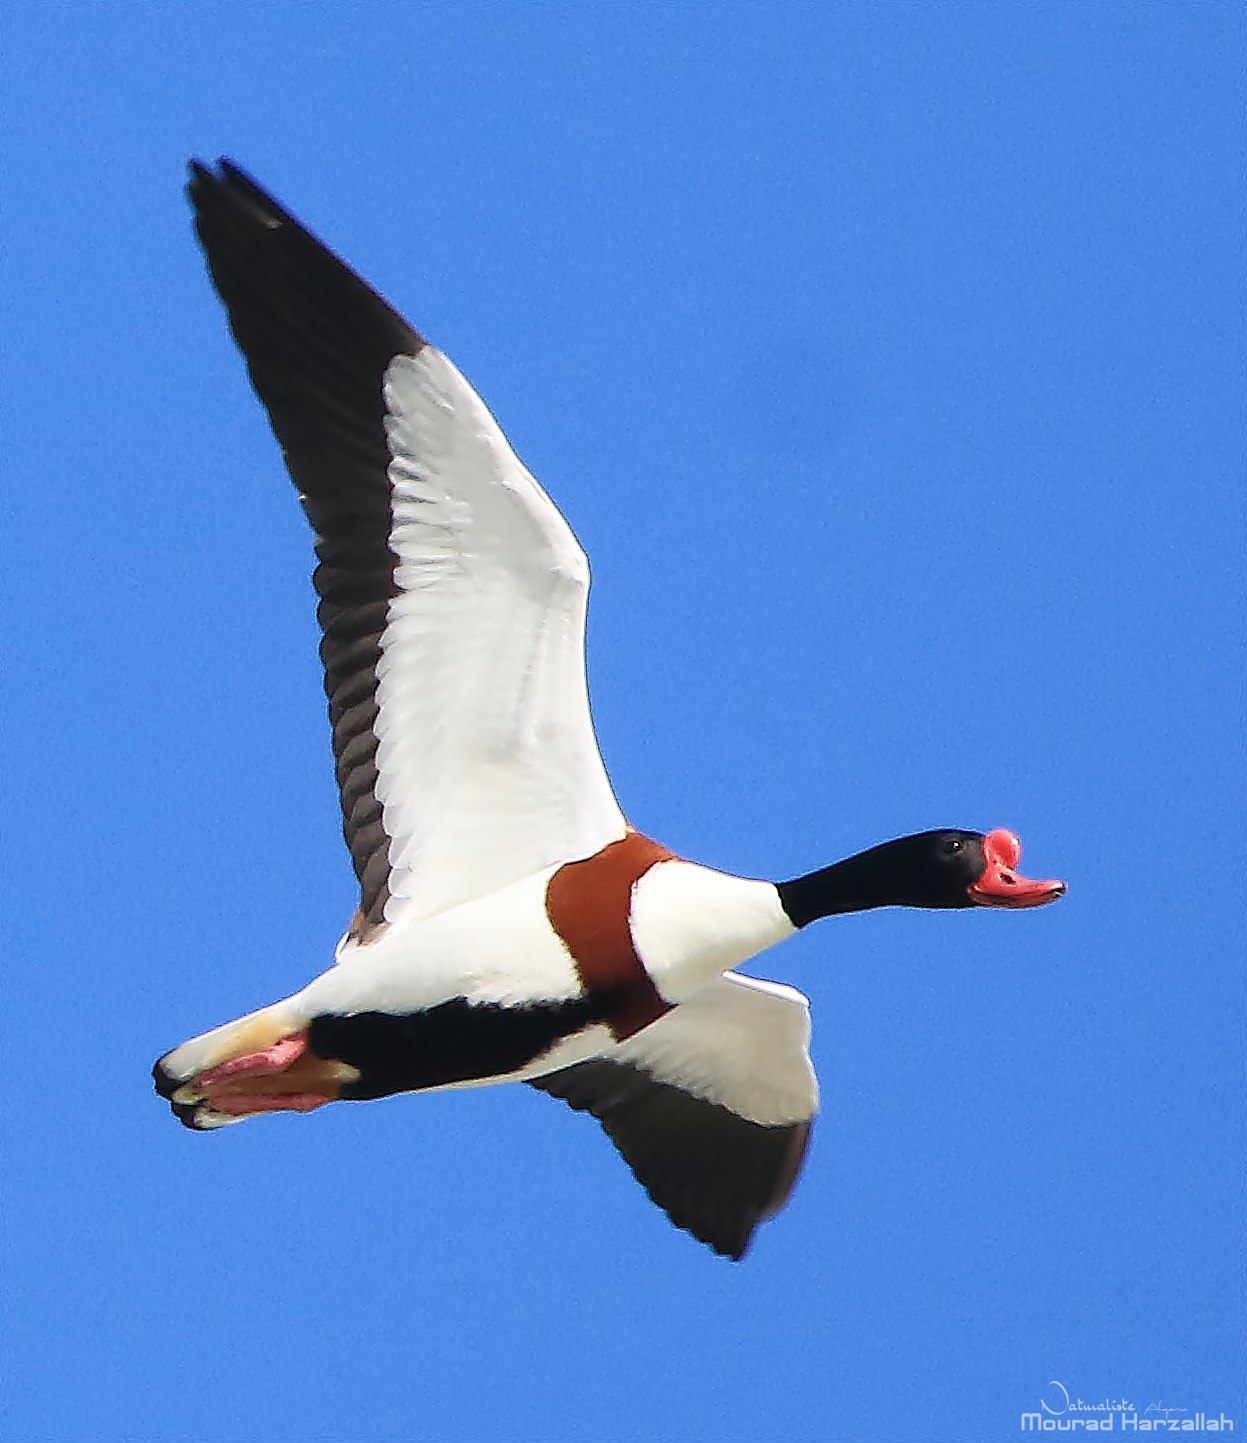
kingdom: Animalia
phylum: Chordata
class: Aves
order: Anseriformes
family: Anatidae
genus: Tadorna
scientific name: Tadorna tadorna
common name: Common shelduck
